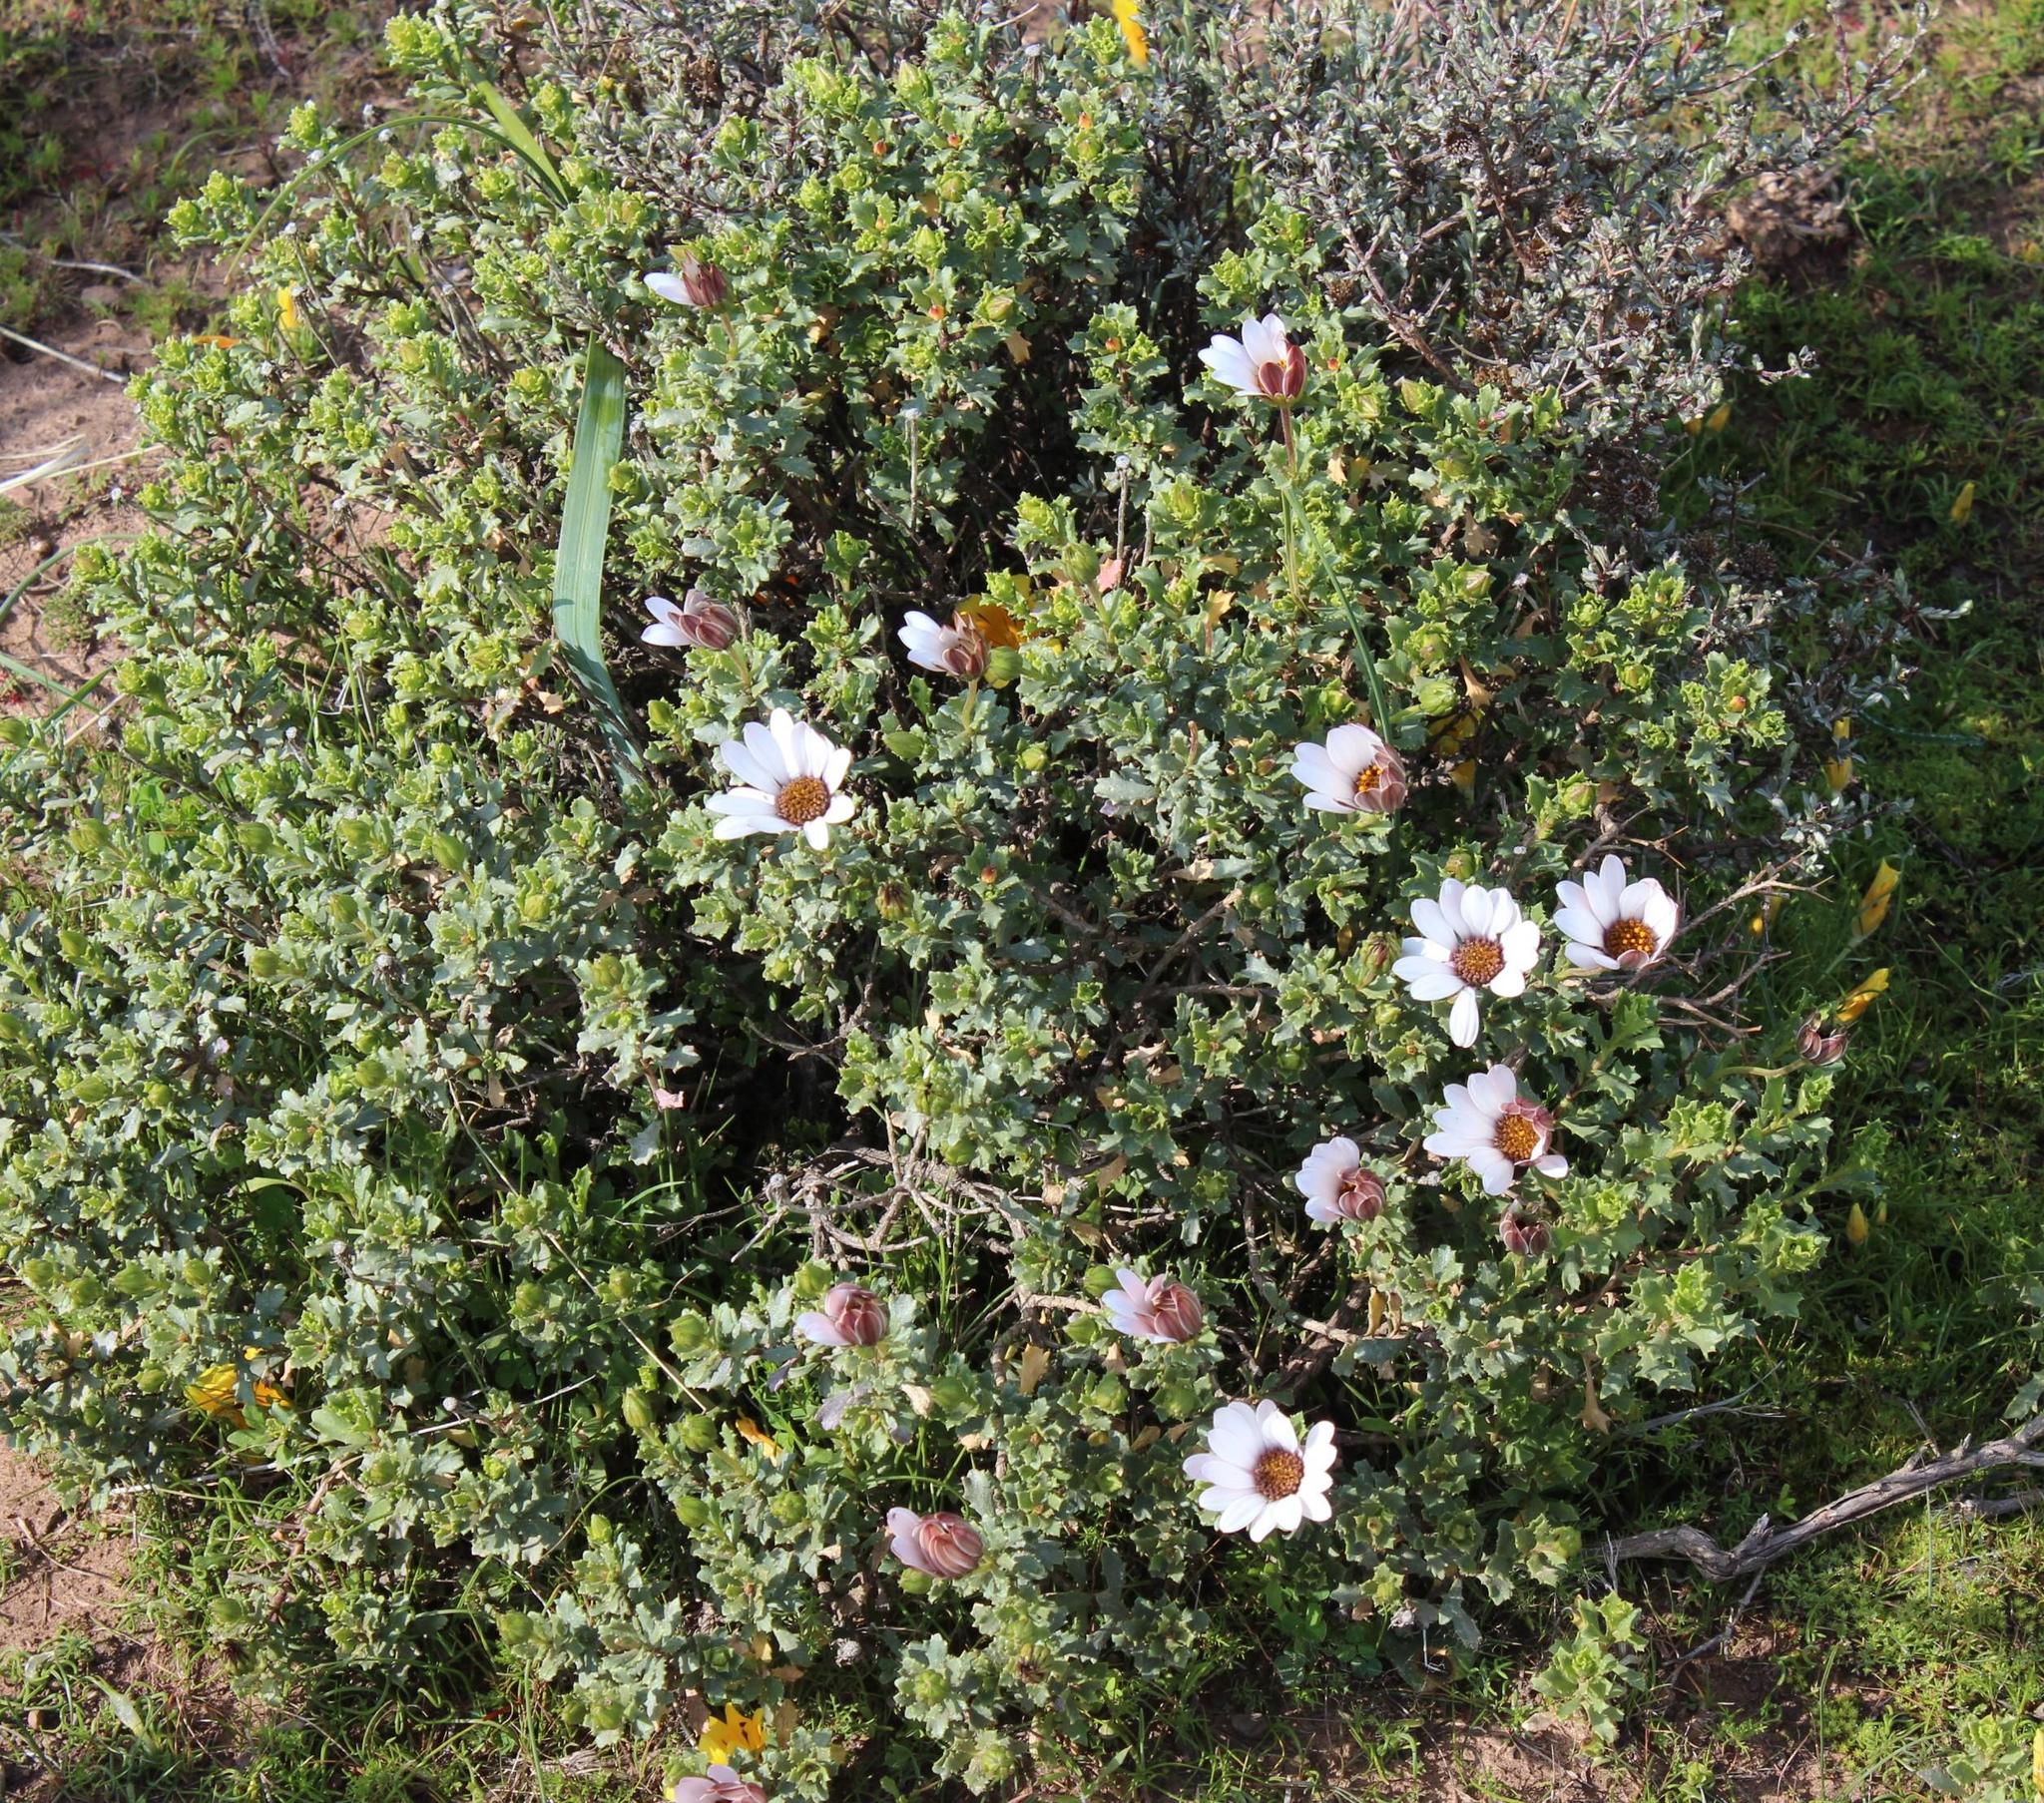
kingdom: Plantae
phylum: Tracheophyta
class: Magnoliopsida
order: Asterales
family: Asteraceae
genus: Dimorphotheca
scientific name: Dimorphotheca cuneata
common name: Daisy
